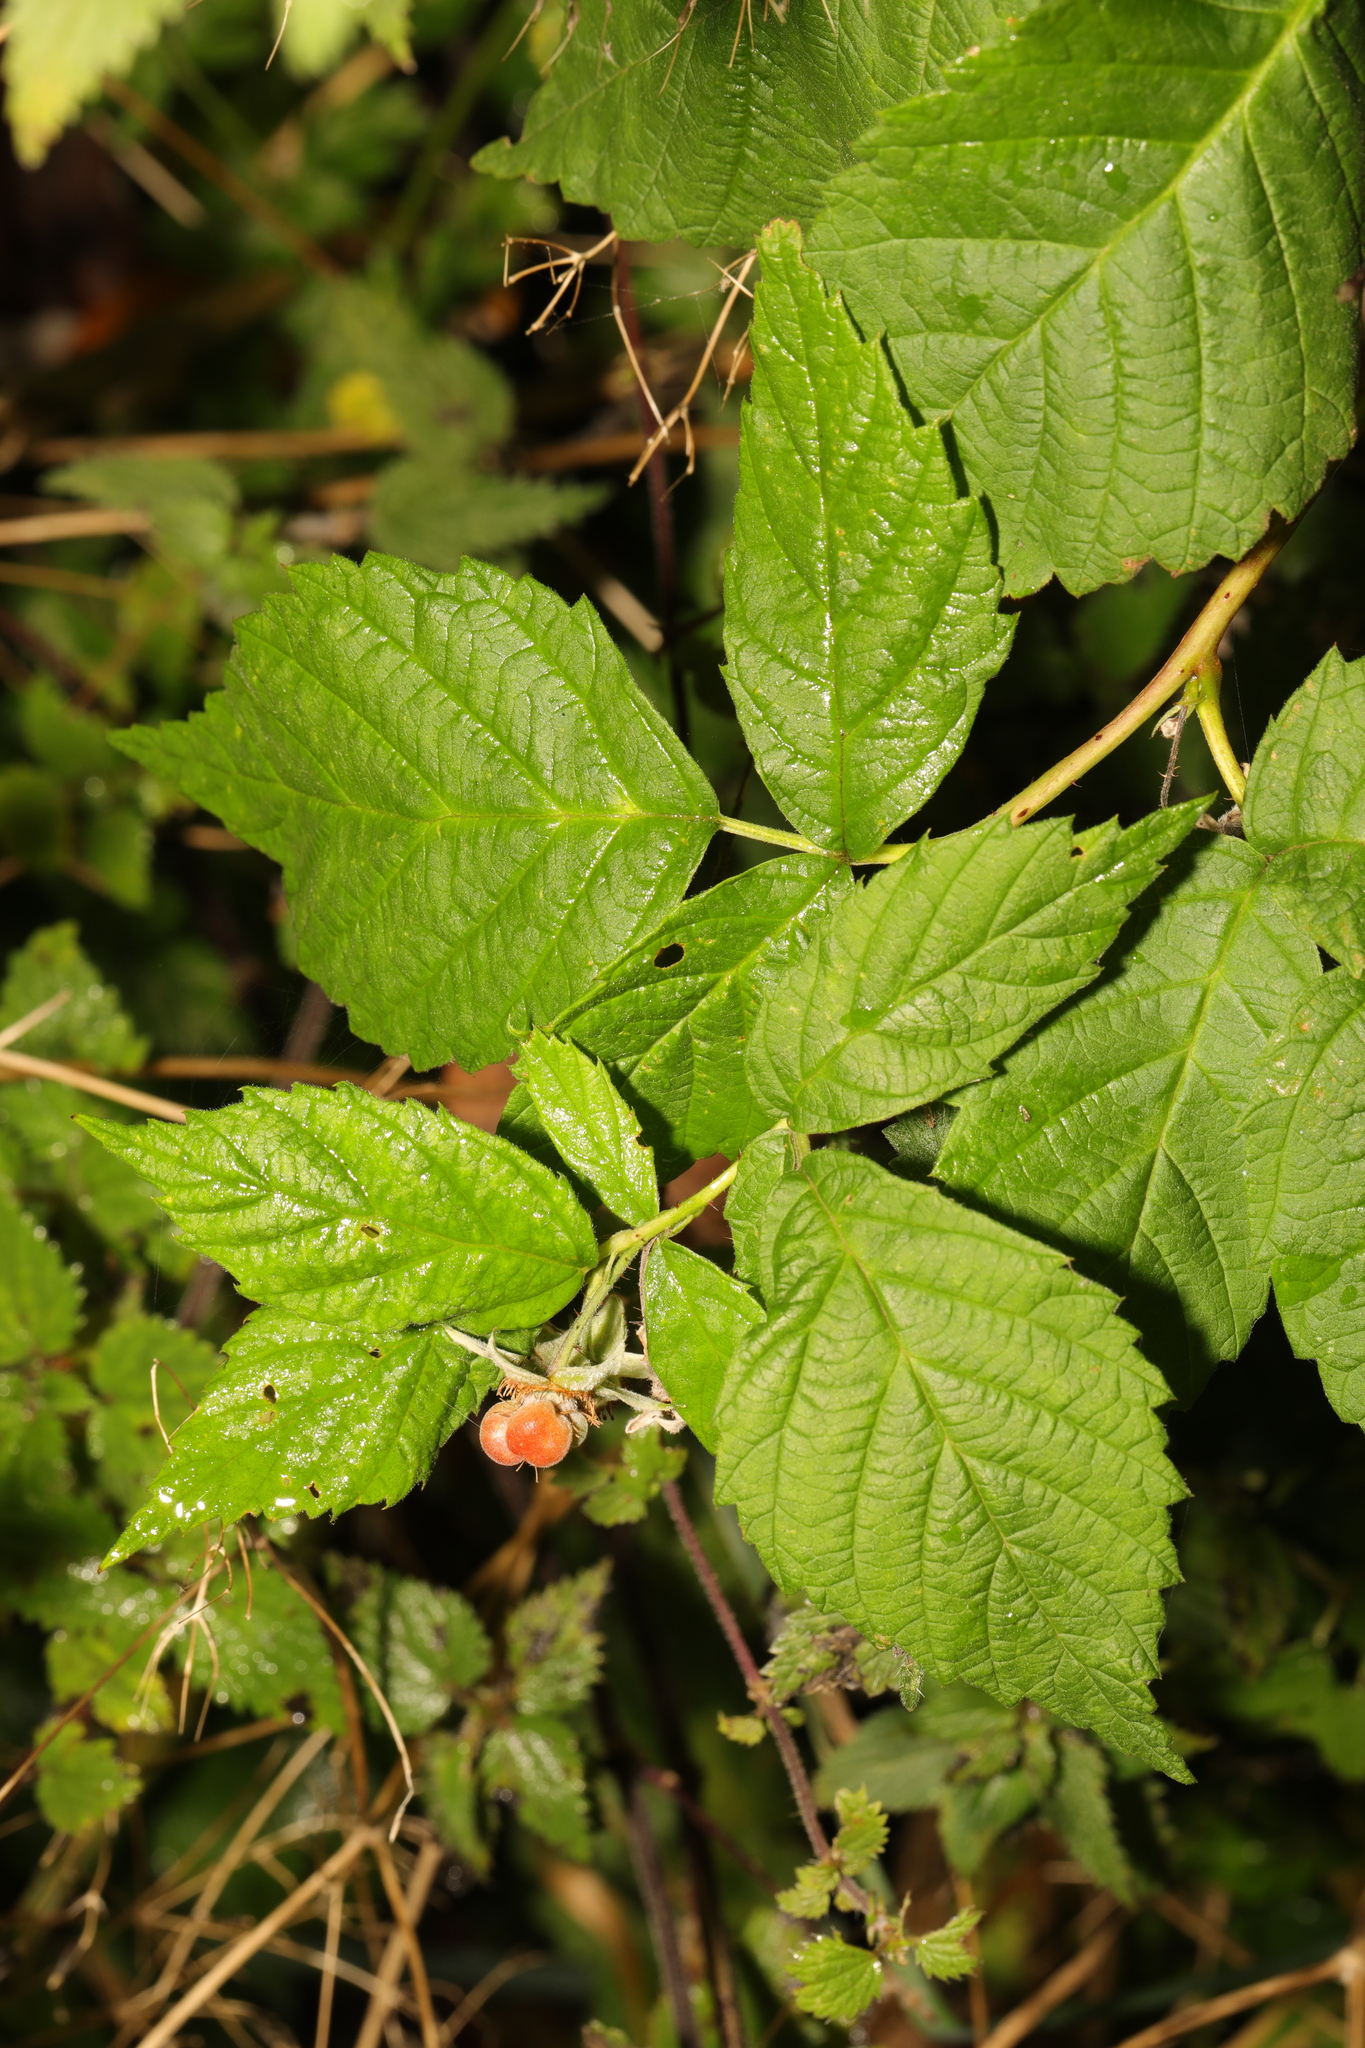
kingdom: Plantae
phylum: Tracheophyta
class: Magnoliopsida
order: Rosales
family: Rosaceae
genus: Rubus
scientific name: Rubus idaeus
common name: Raspberry
